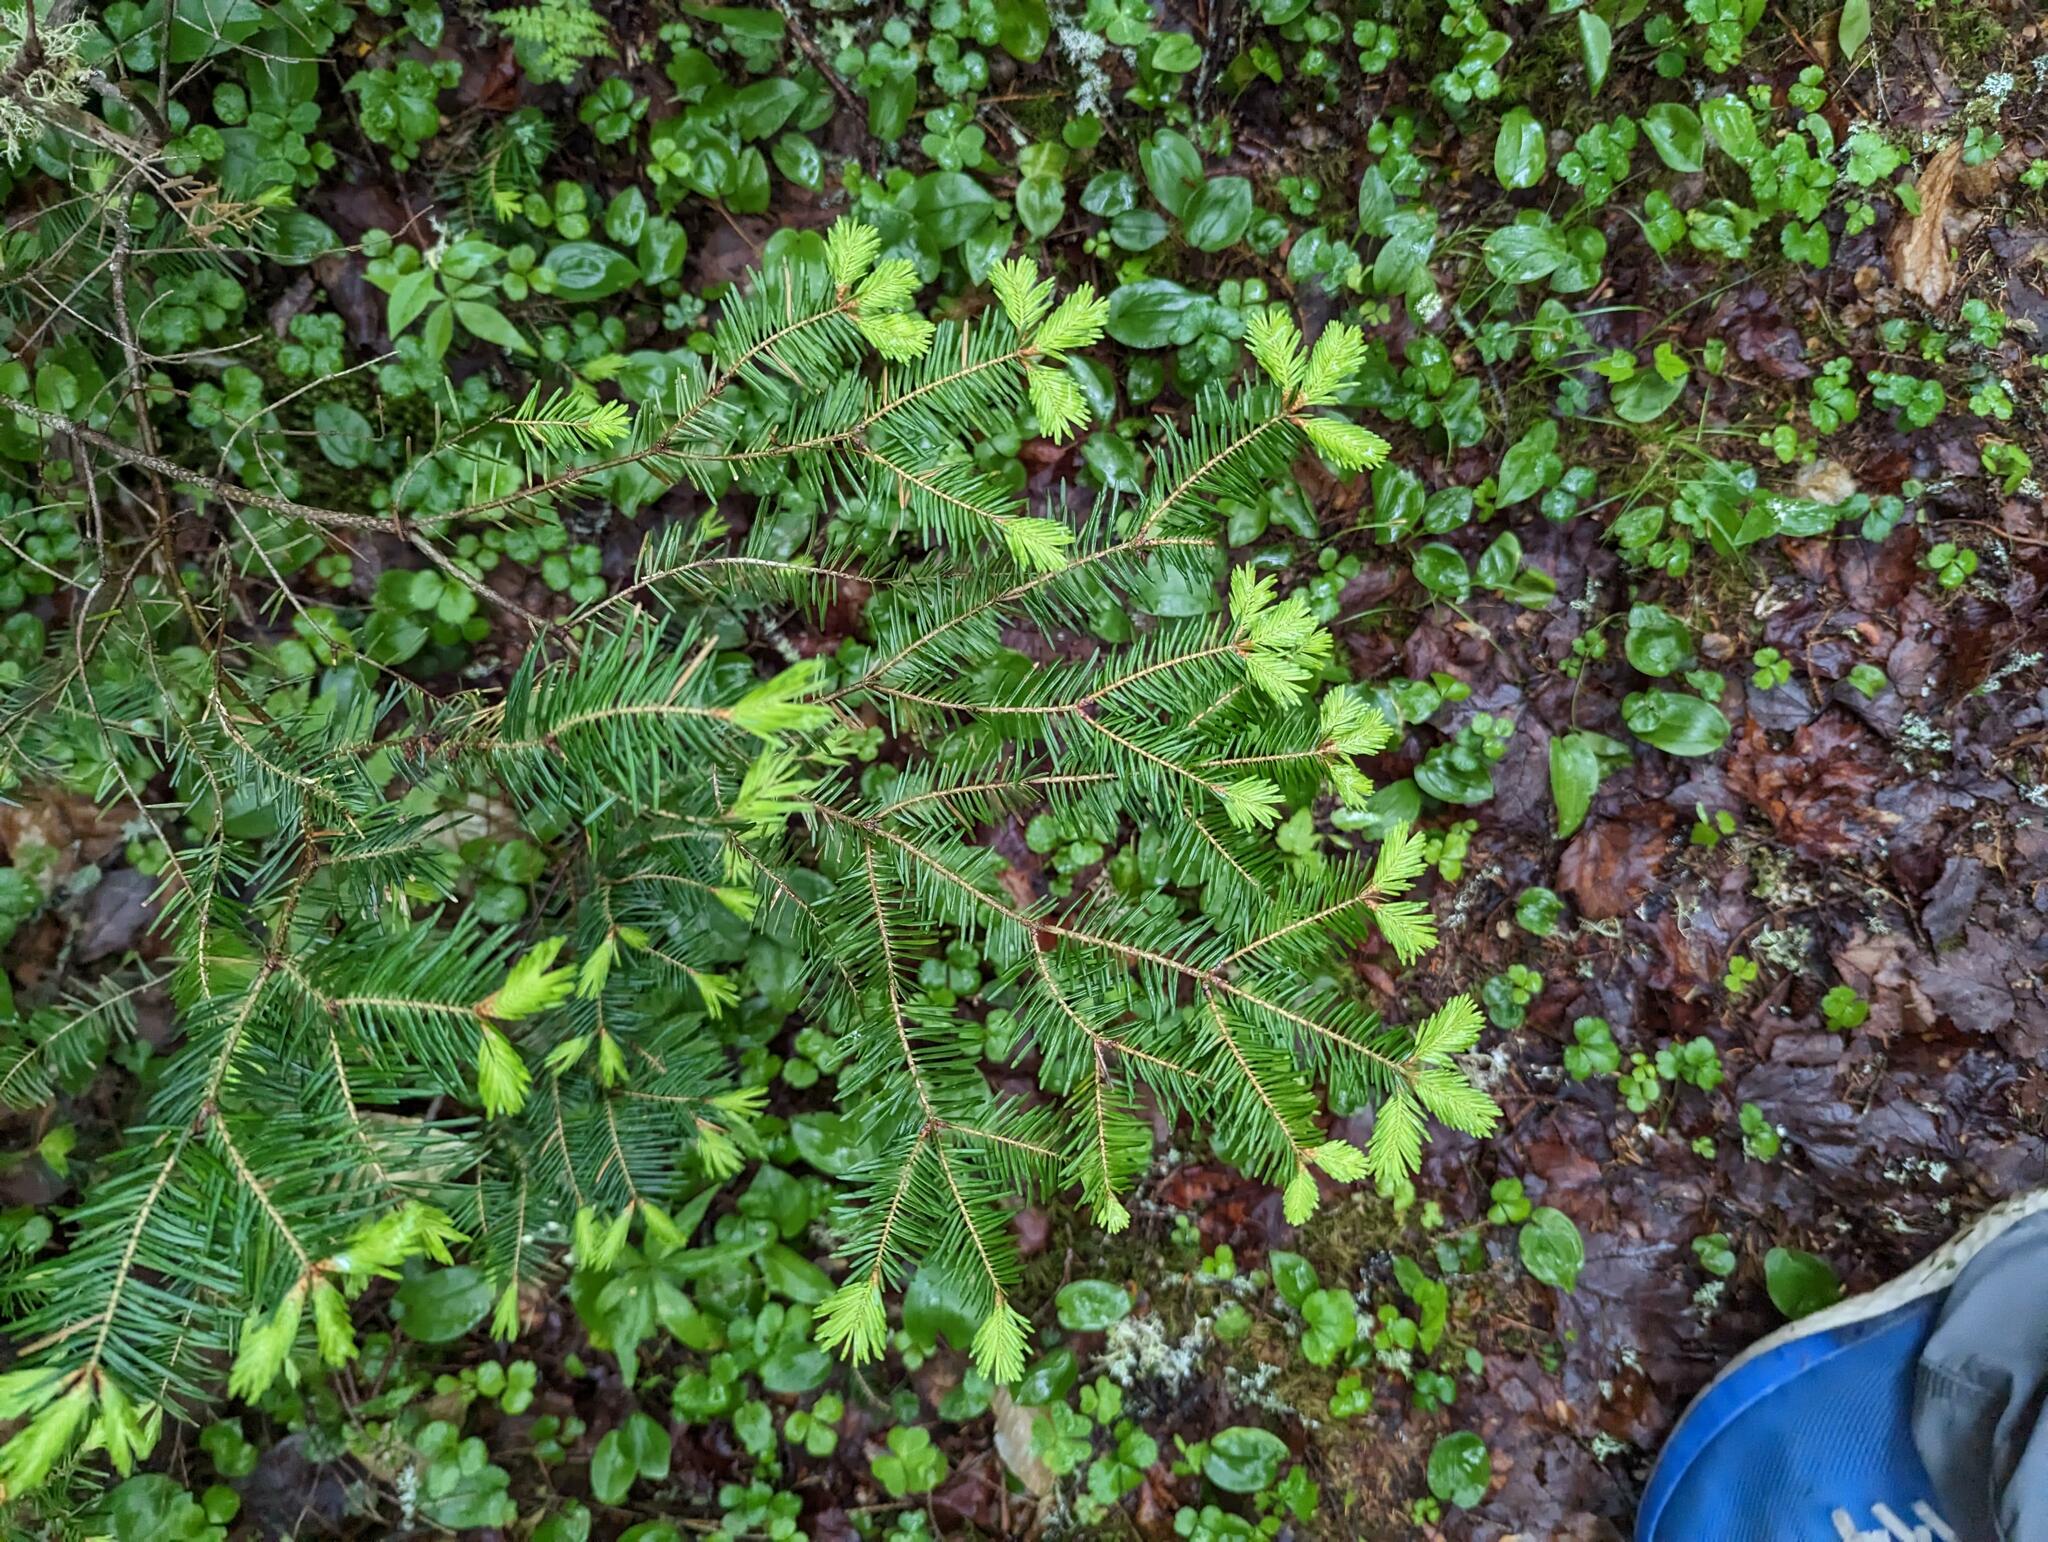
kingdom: Plantae
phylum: Tracheophyta
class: Pinopsida
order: Pinales
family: Pinaceae
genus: Abies
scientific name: Abies balsamea
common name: Balsam fir
